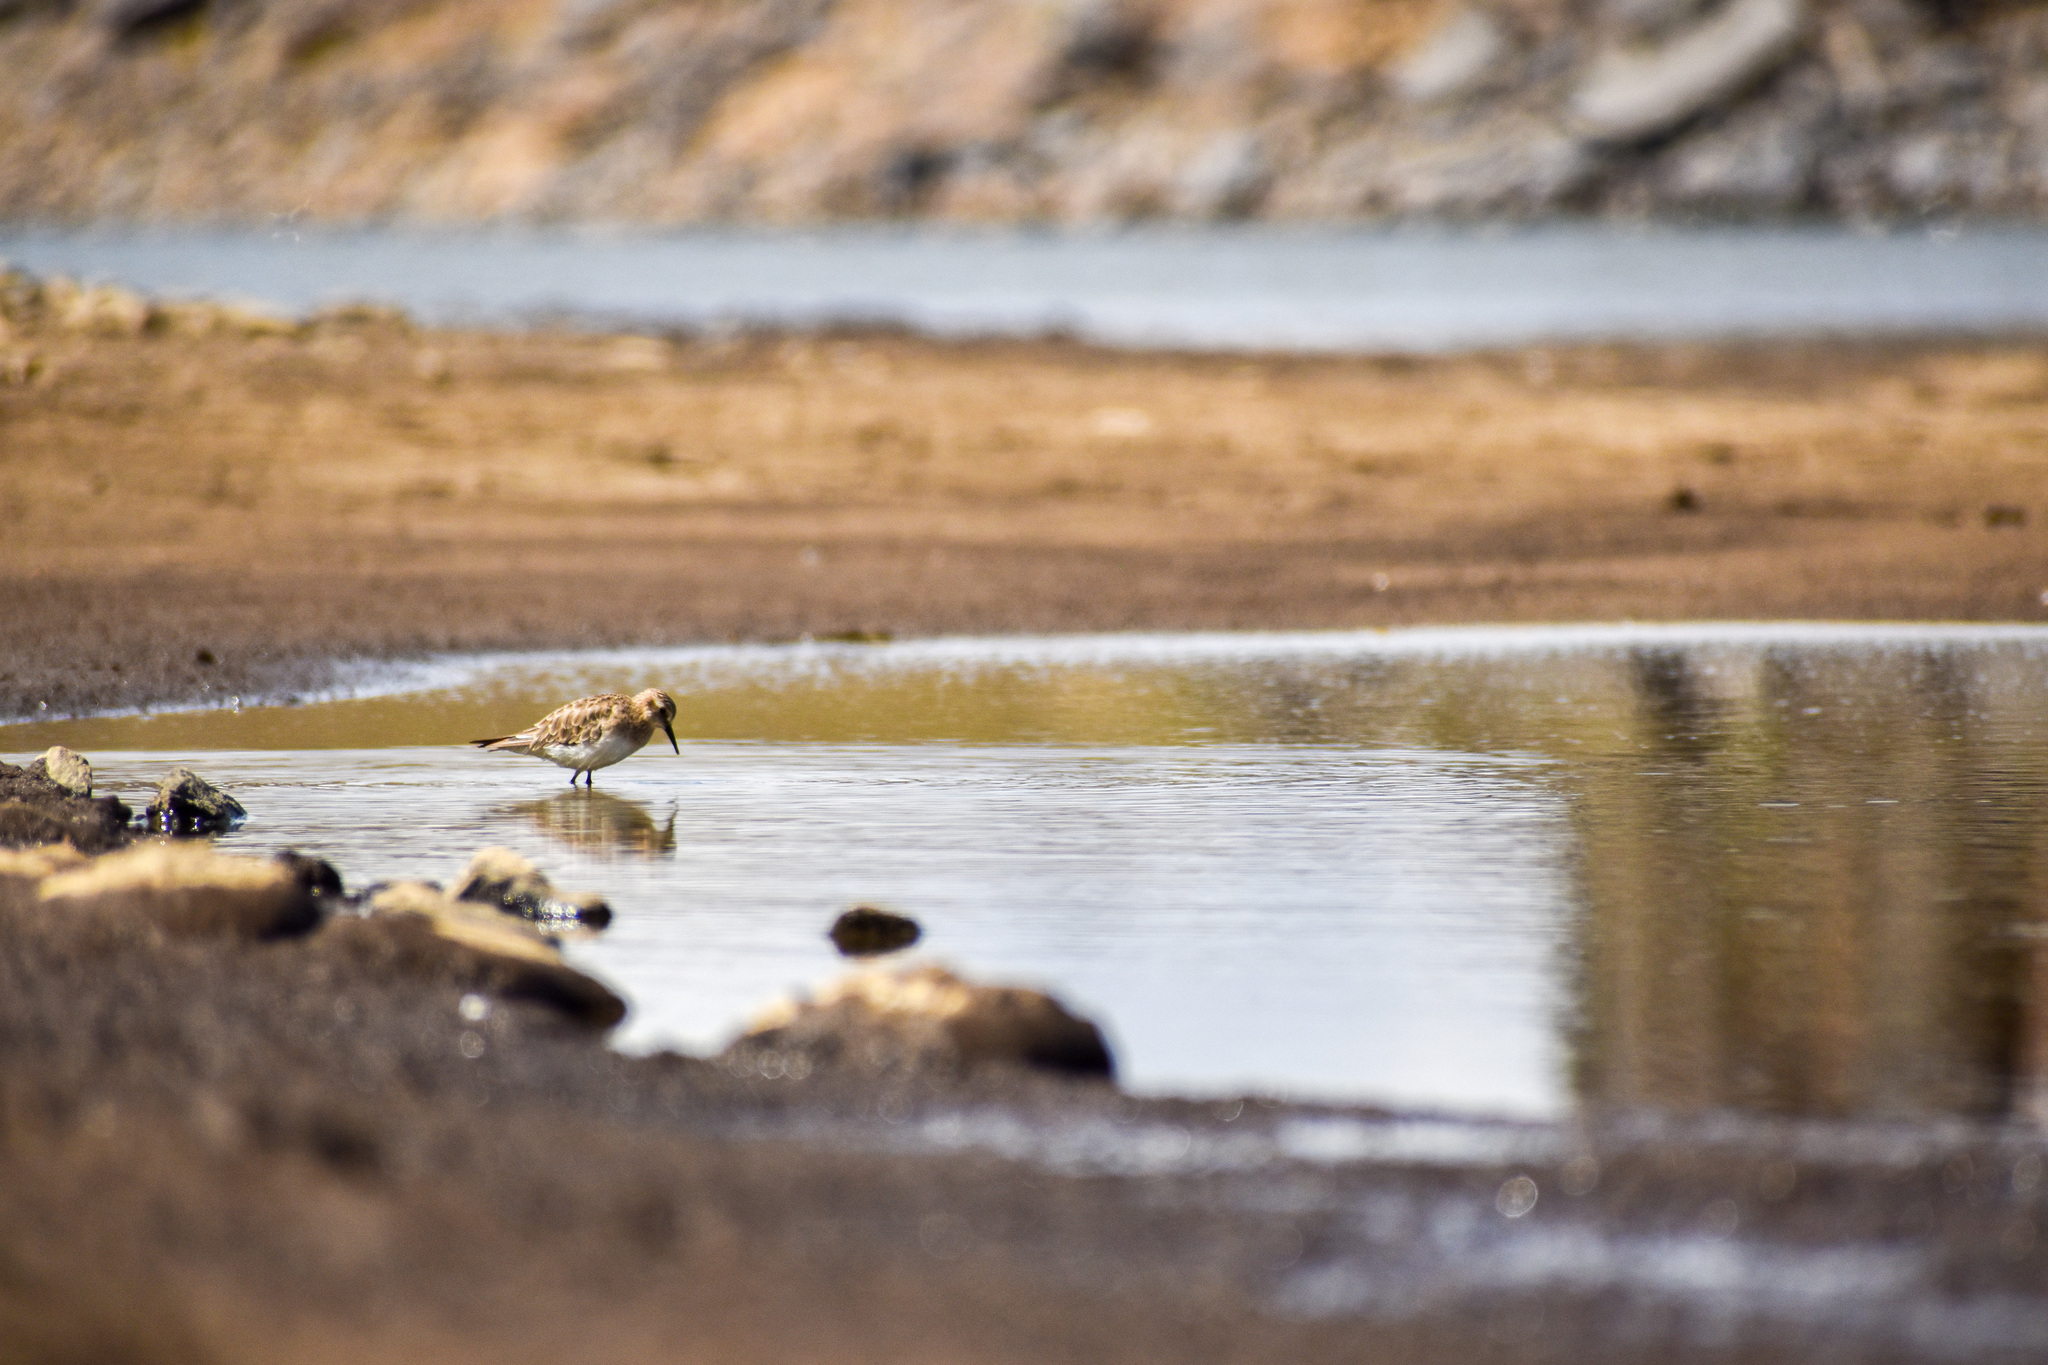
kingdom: Animalia
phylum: Chordata
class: Aves
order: Charadriiformes
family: Scolopacidae
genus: Calidris
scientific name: Calidris bairdii
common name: Baird's sandpiper
